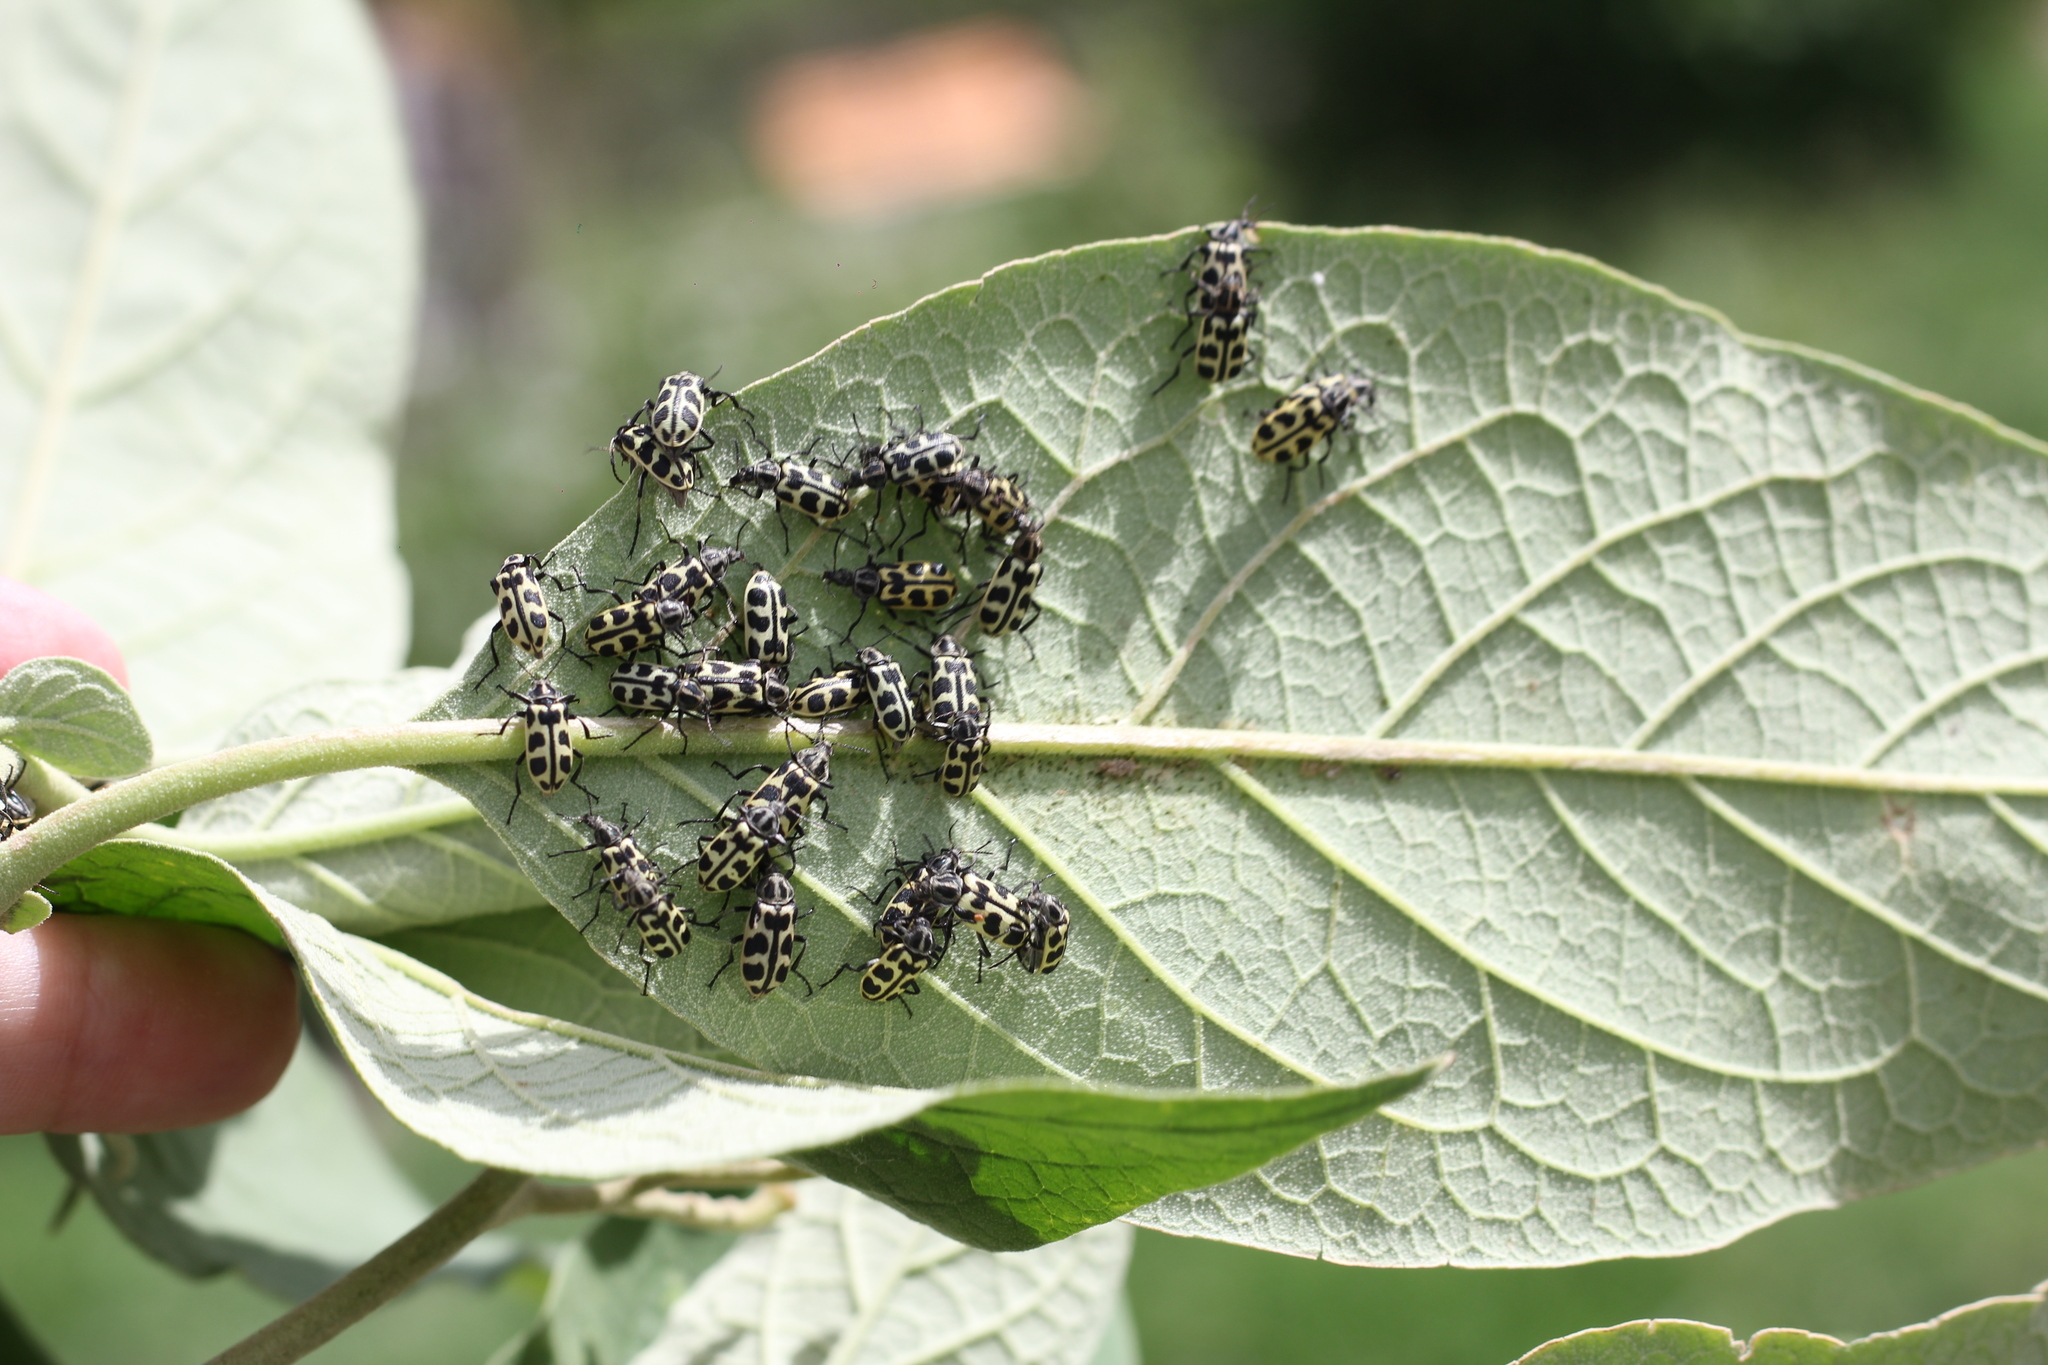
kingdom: Animalia
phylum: Arthropoda
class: Insecta
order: Coleoptera
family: Melyridae
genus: Astylus
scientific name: Astylus atromaculatus
